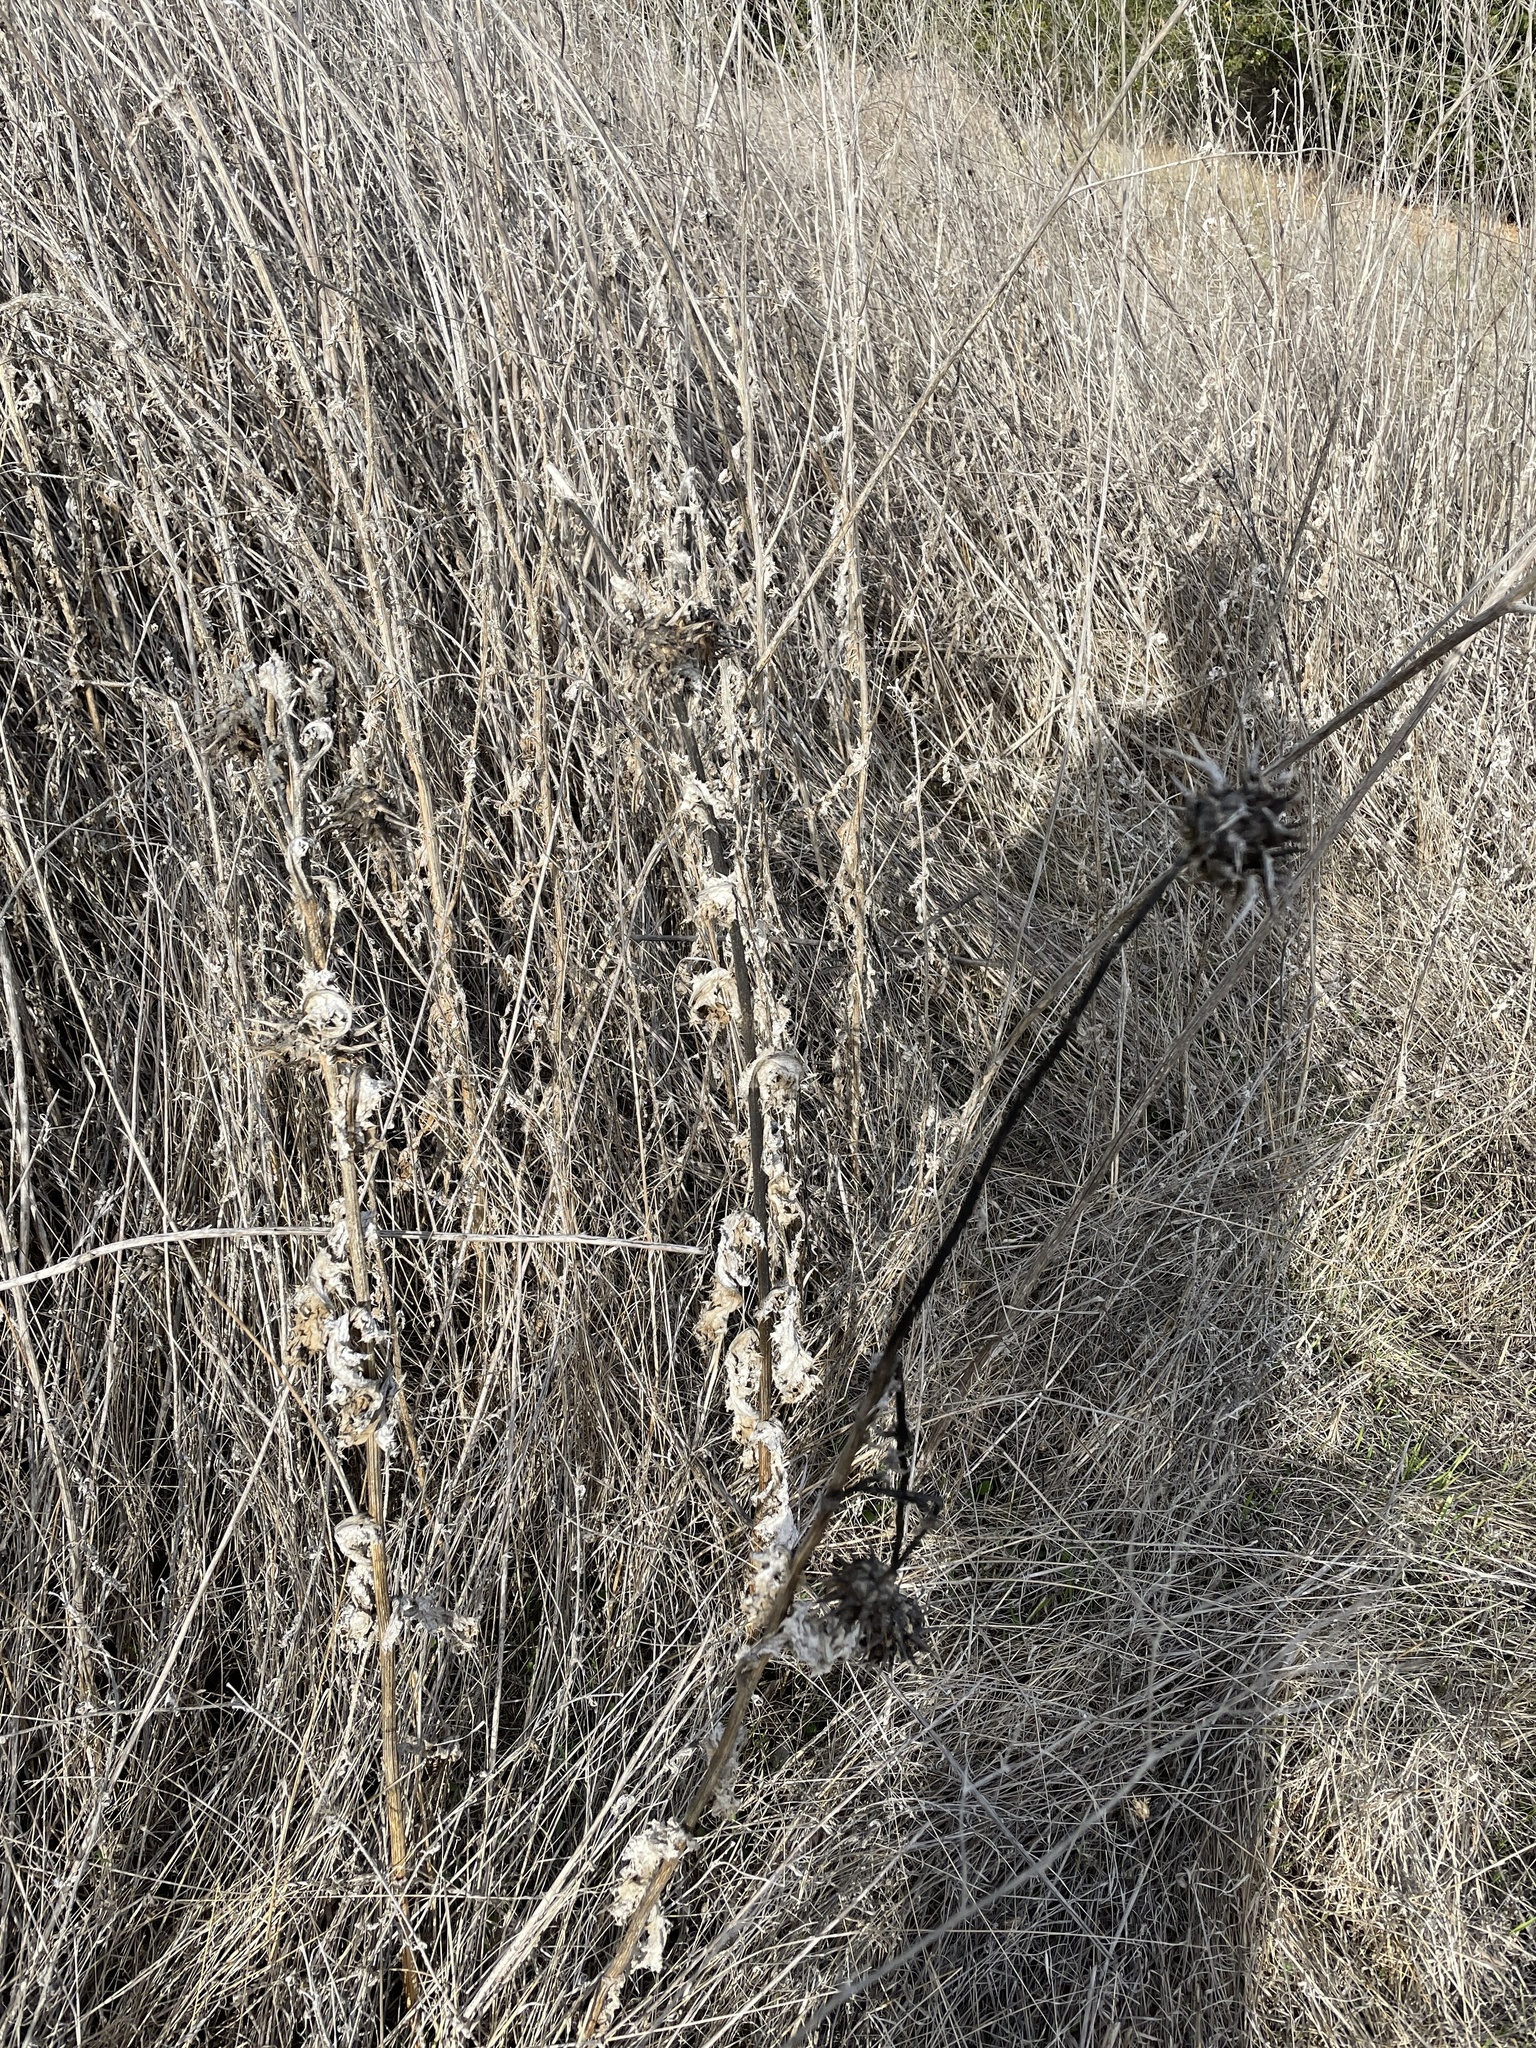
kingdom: Plantae
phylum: Tracheophyta
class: Magnoliopsida
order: Asterales
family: Asteraceae
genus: Silybum
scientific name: Silybum marianum
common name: Milk thistle
